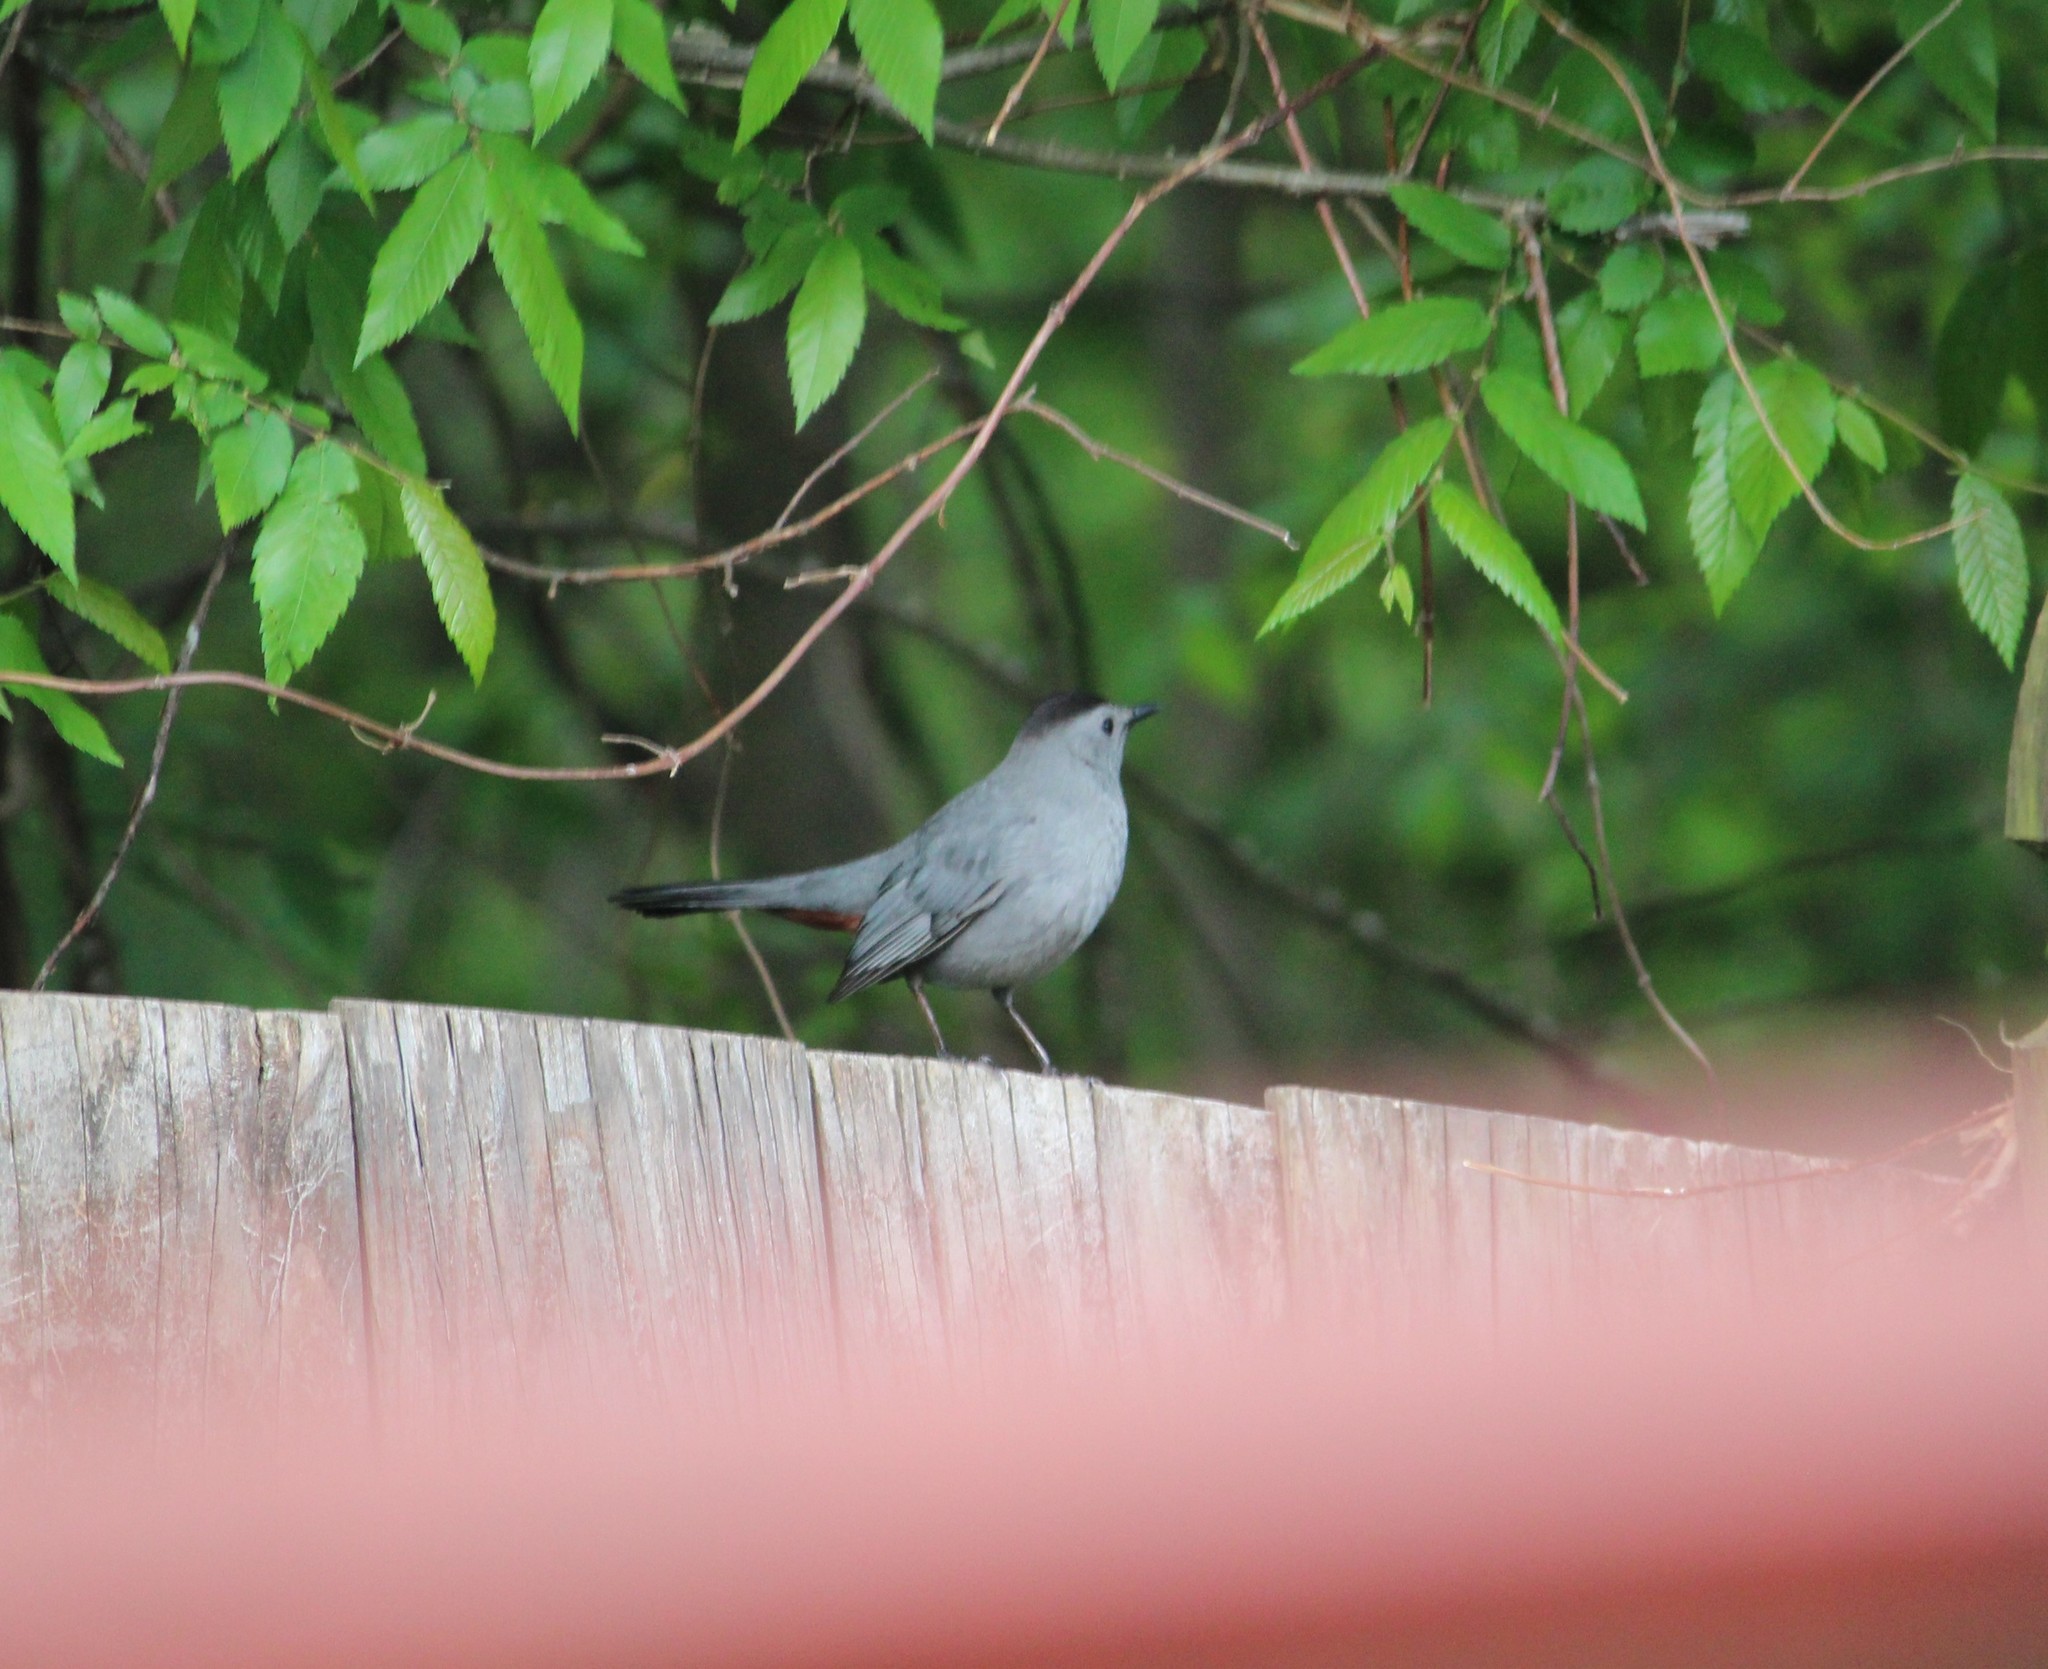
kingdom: Animalia
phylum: Chordata
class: Aves
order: Passeriformes
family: Mimidae
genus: Dumetella
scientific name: Dumetella carolinensis
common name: Gray catbird
